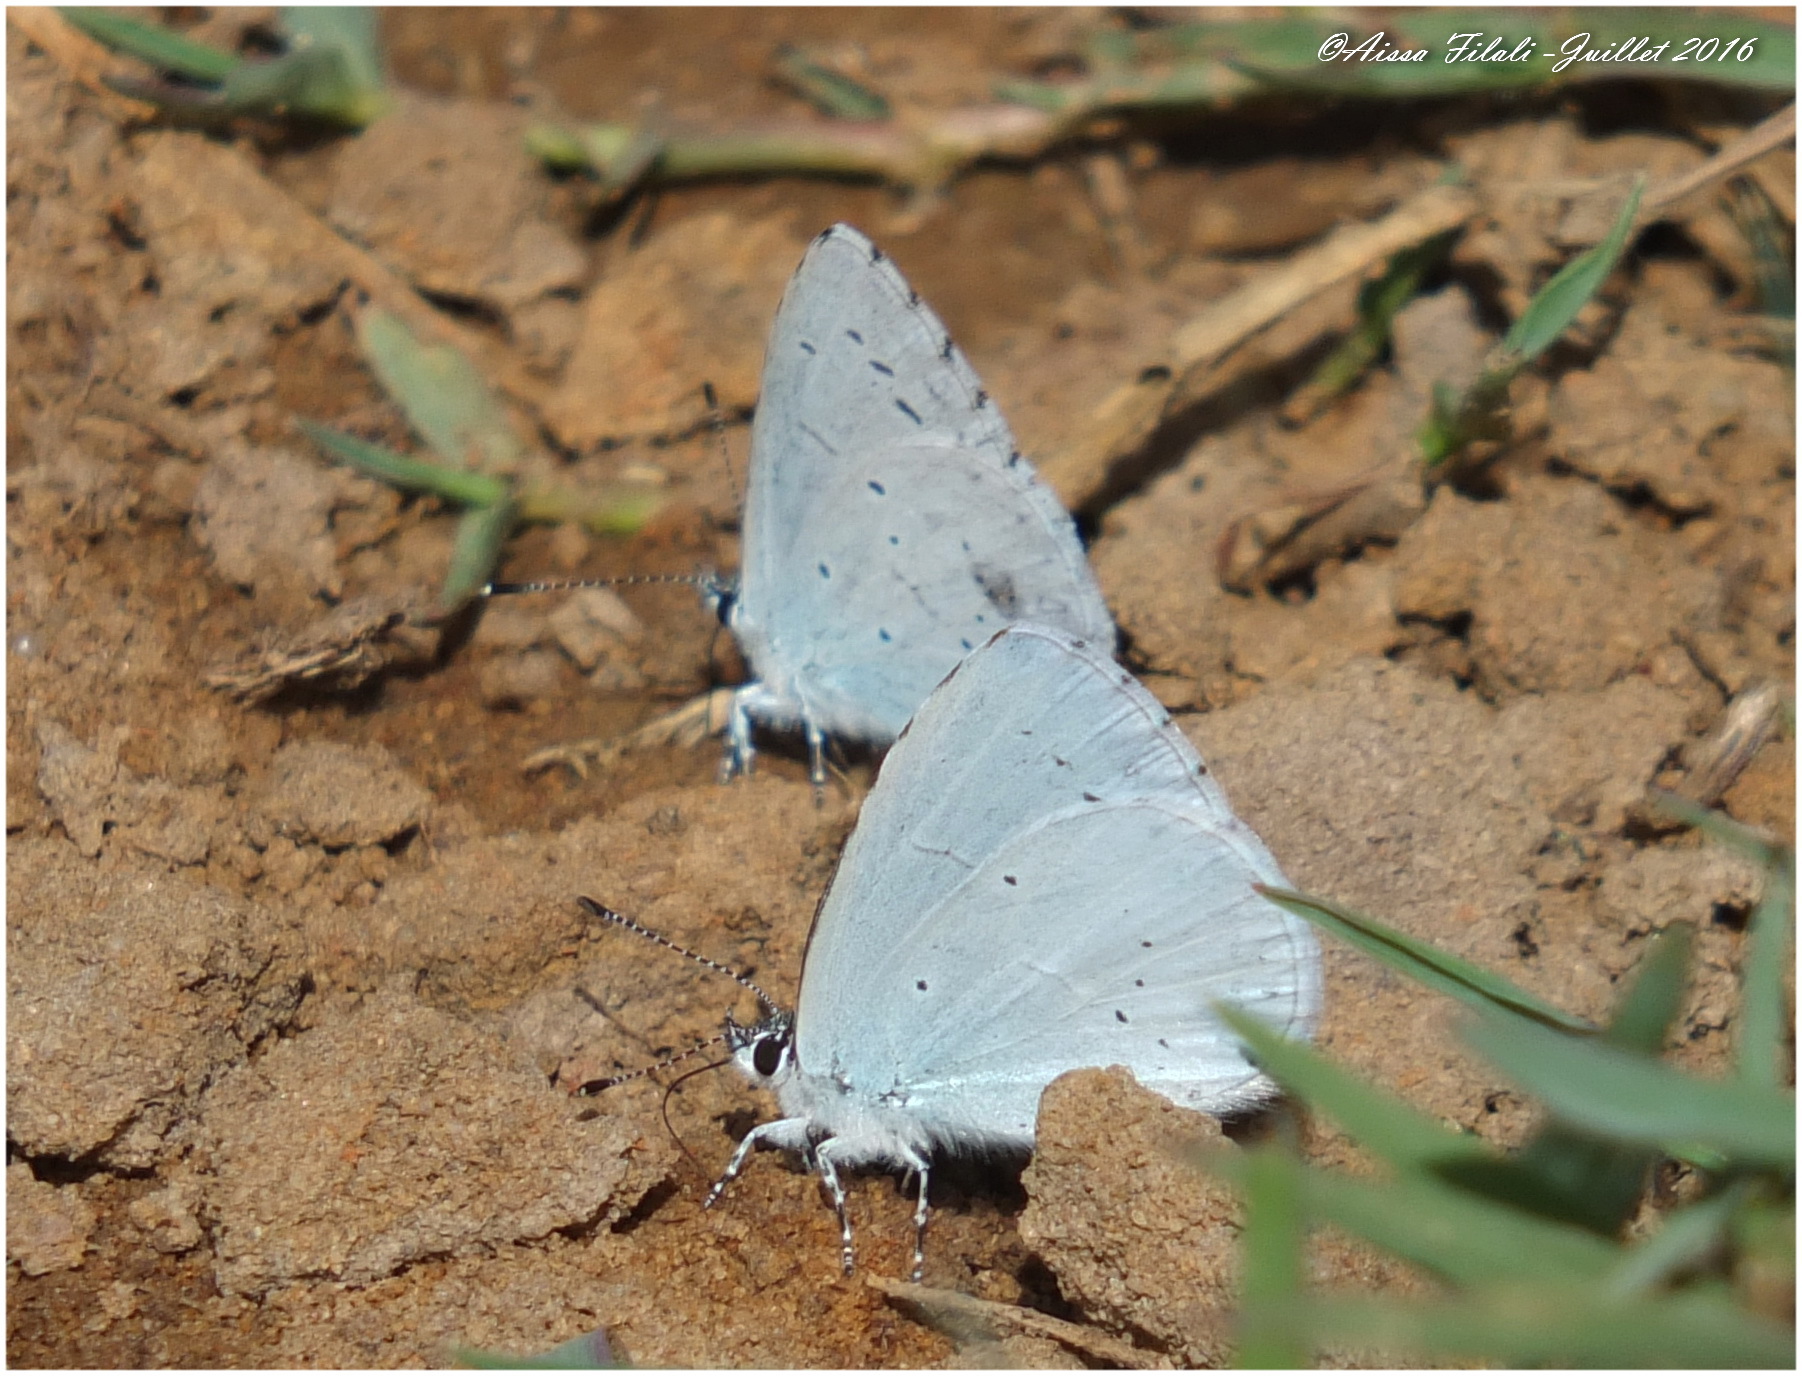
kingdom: Animalia
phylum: Arthropoda
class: Insecta
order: Lepidoptera
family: Lycaenidae
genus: Celastrina
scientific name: Celastrina argiolus
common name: Holly blue
